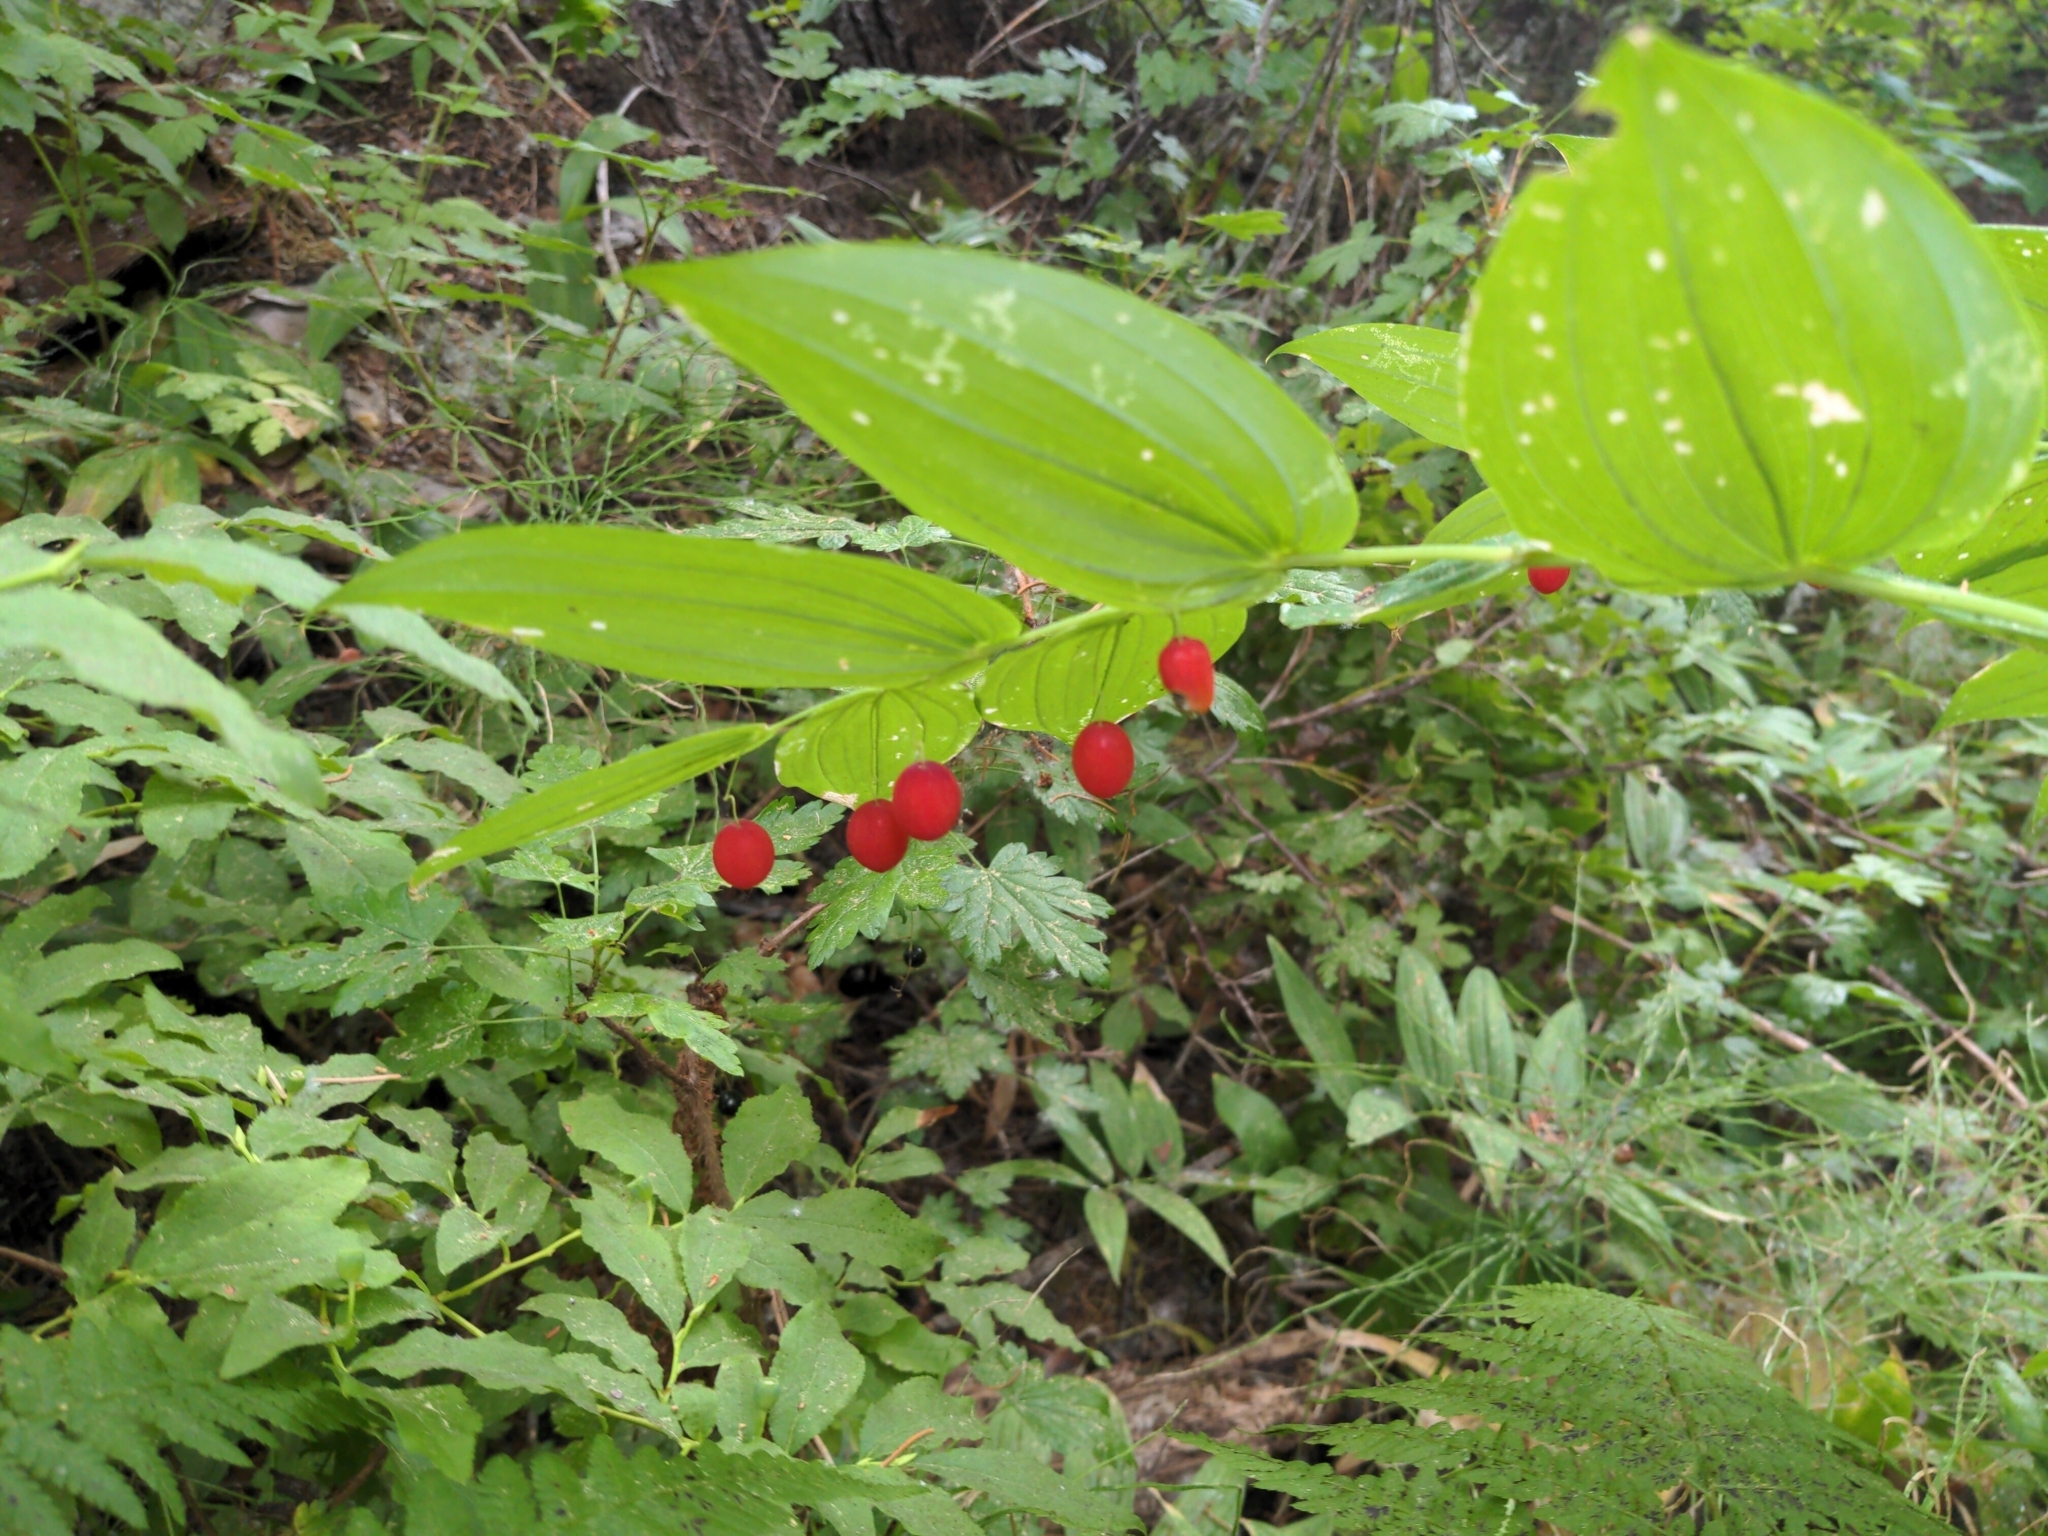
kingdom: Plantae
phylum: Tracheophyta
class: Liliopsida
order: Liliales
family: Liliaceae
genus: Streptopus
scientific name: Streptopus amplexifolius
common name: Clasp twisted stalk
